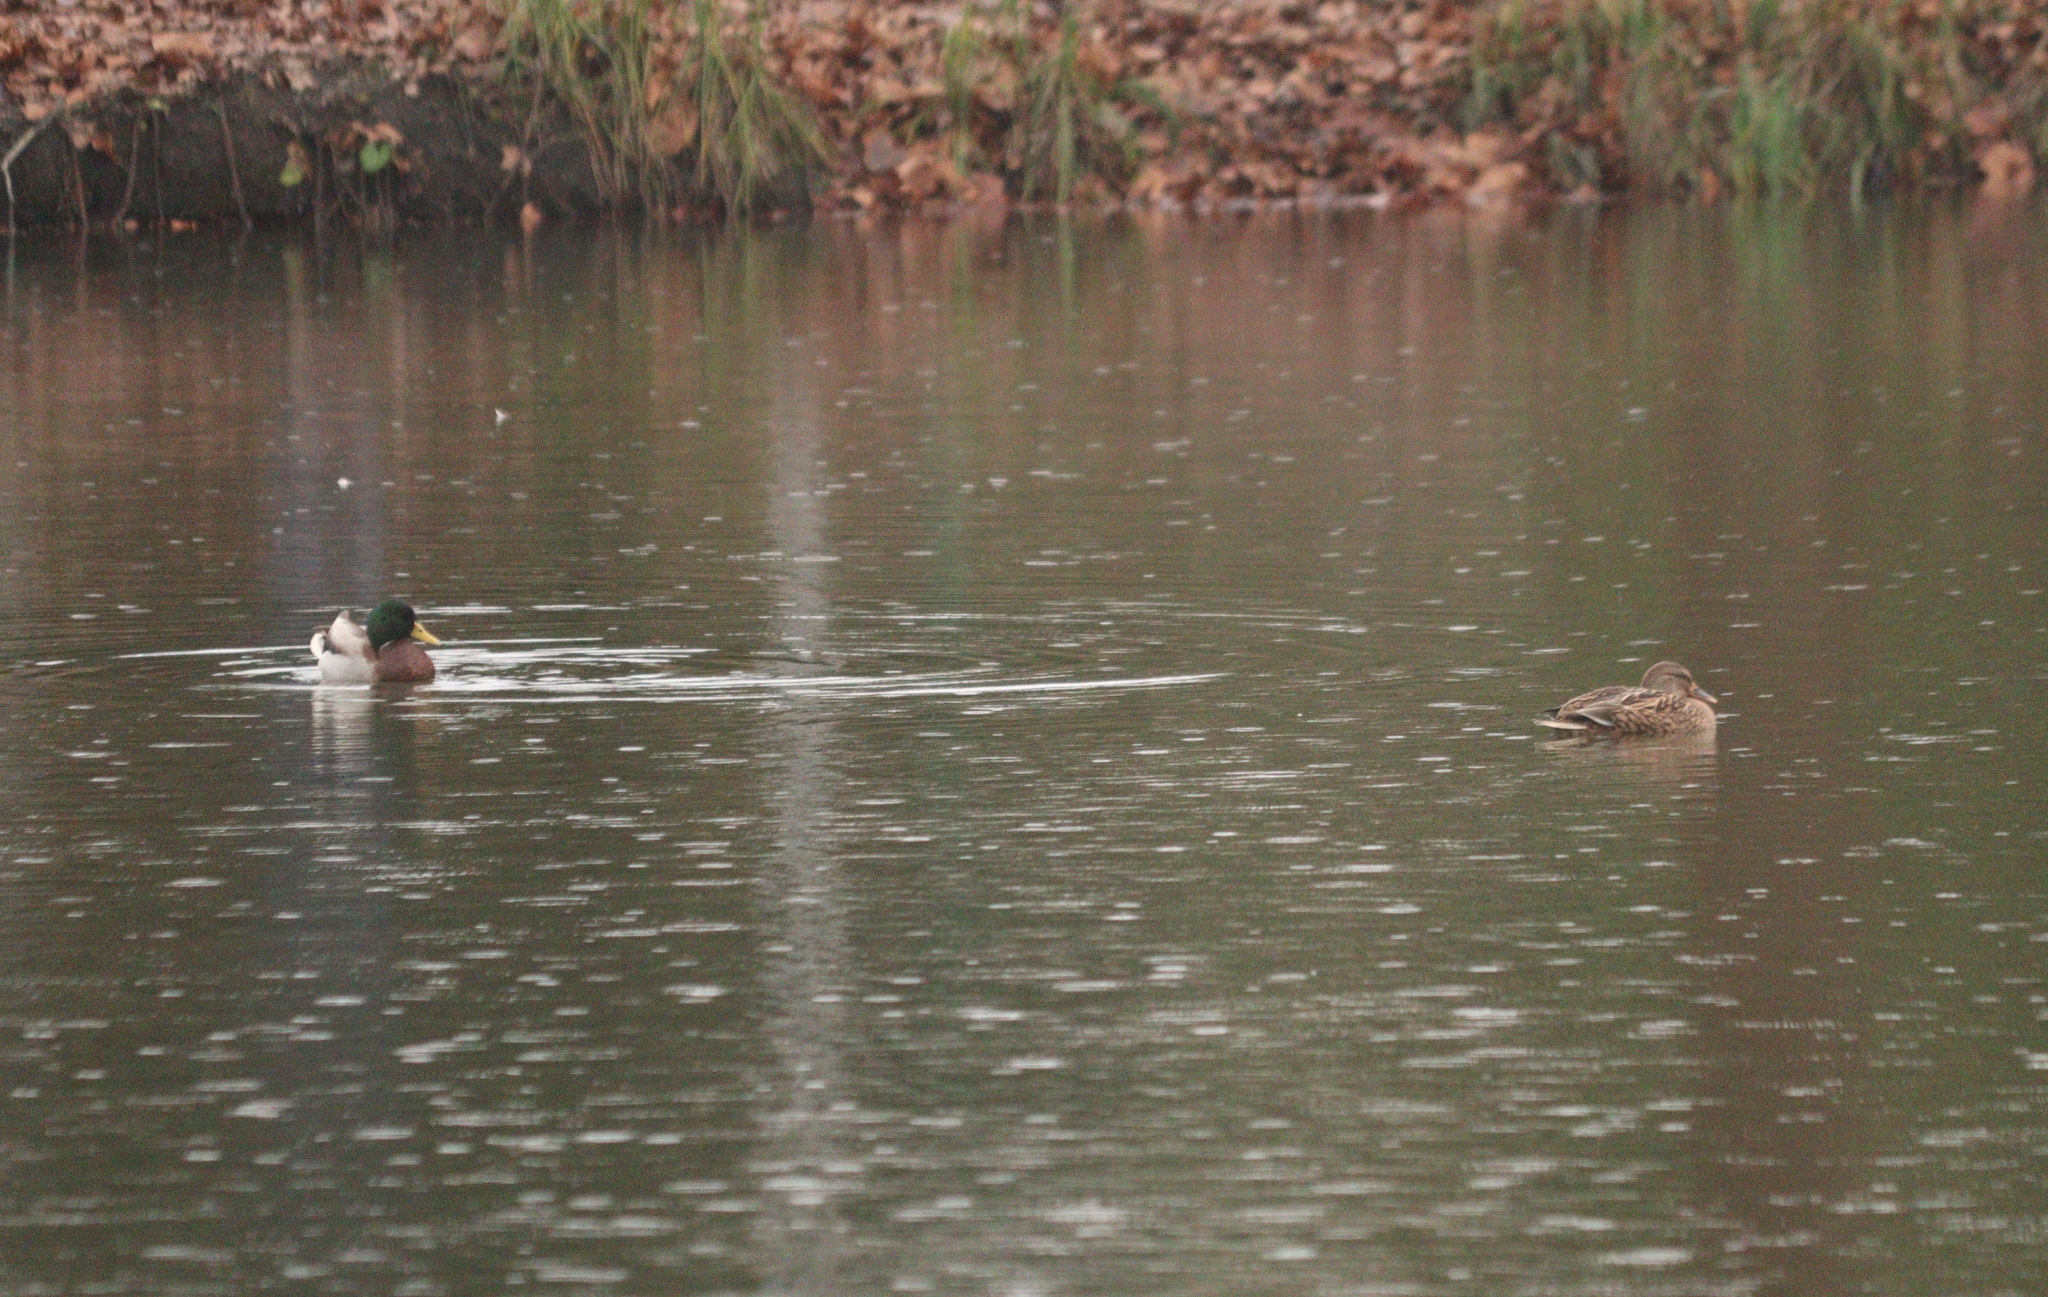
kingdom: Animalia
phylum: Chordata
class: Aves
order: Anseriformes
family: Anatidae
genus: Anas
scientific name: Anas platyrhynchos
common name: Mallard
